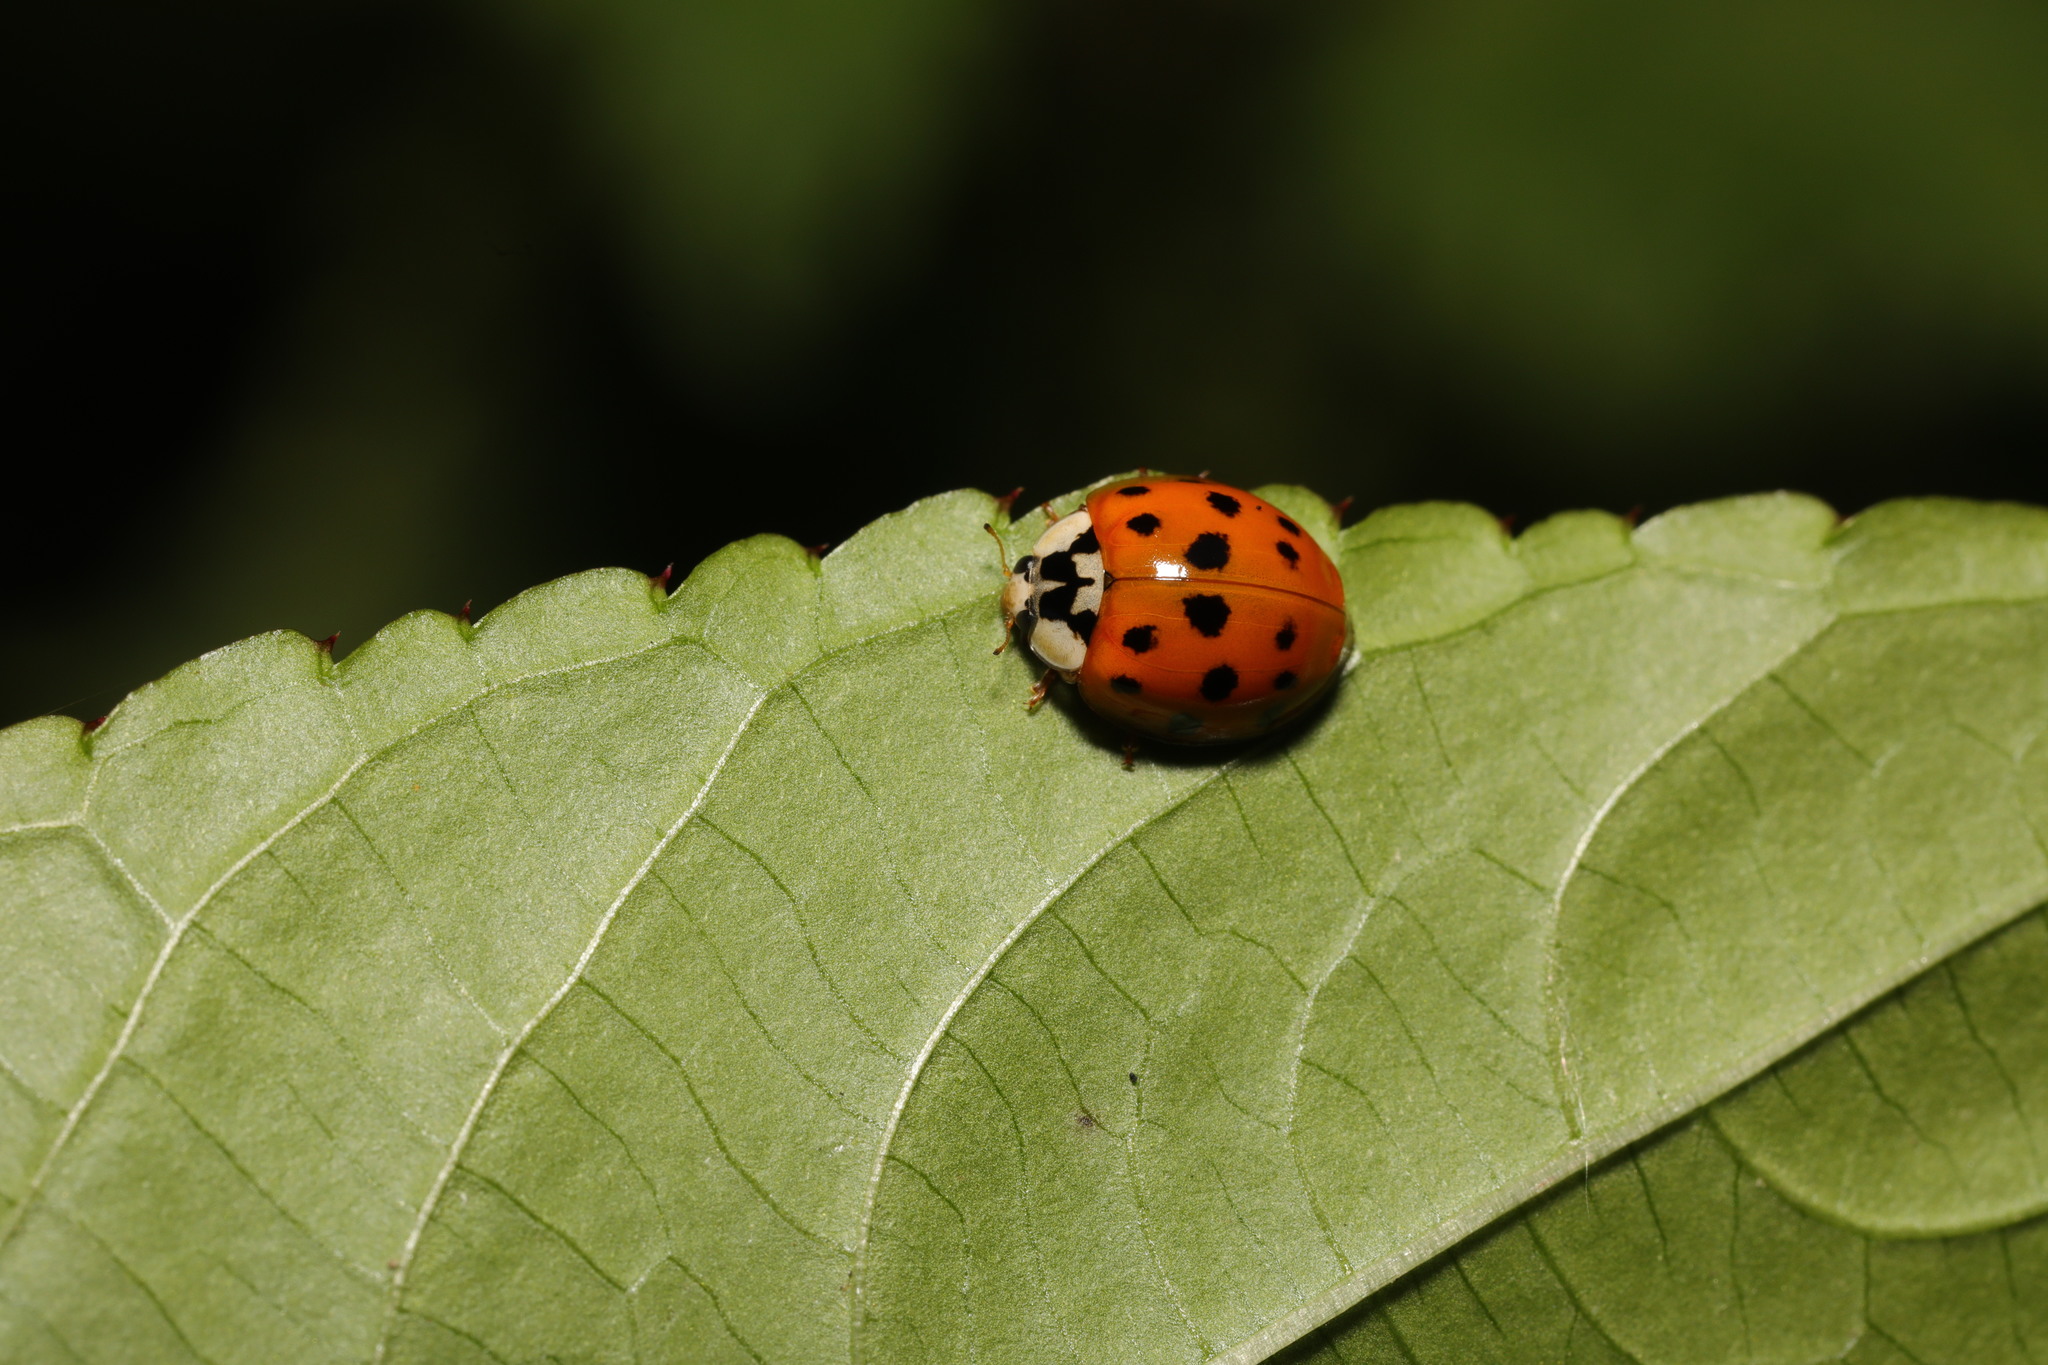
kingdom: Animalia
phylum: Arthropoda
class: Insecta
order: Coleoptera
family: Coccinellidae
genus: Harmonia
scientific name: Harmonia axyridis
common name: Harlequin ladybird
